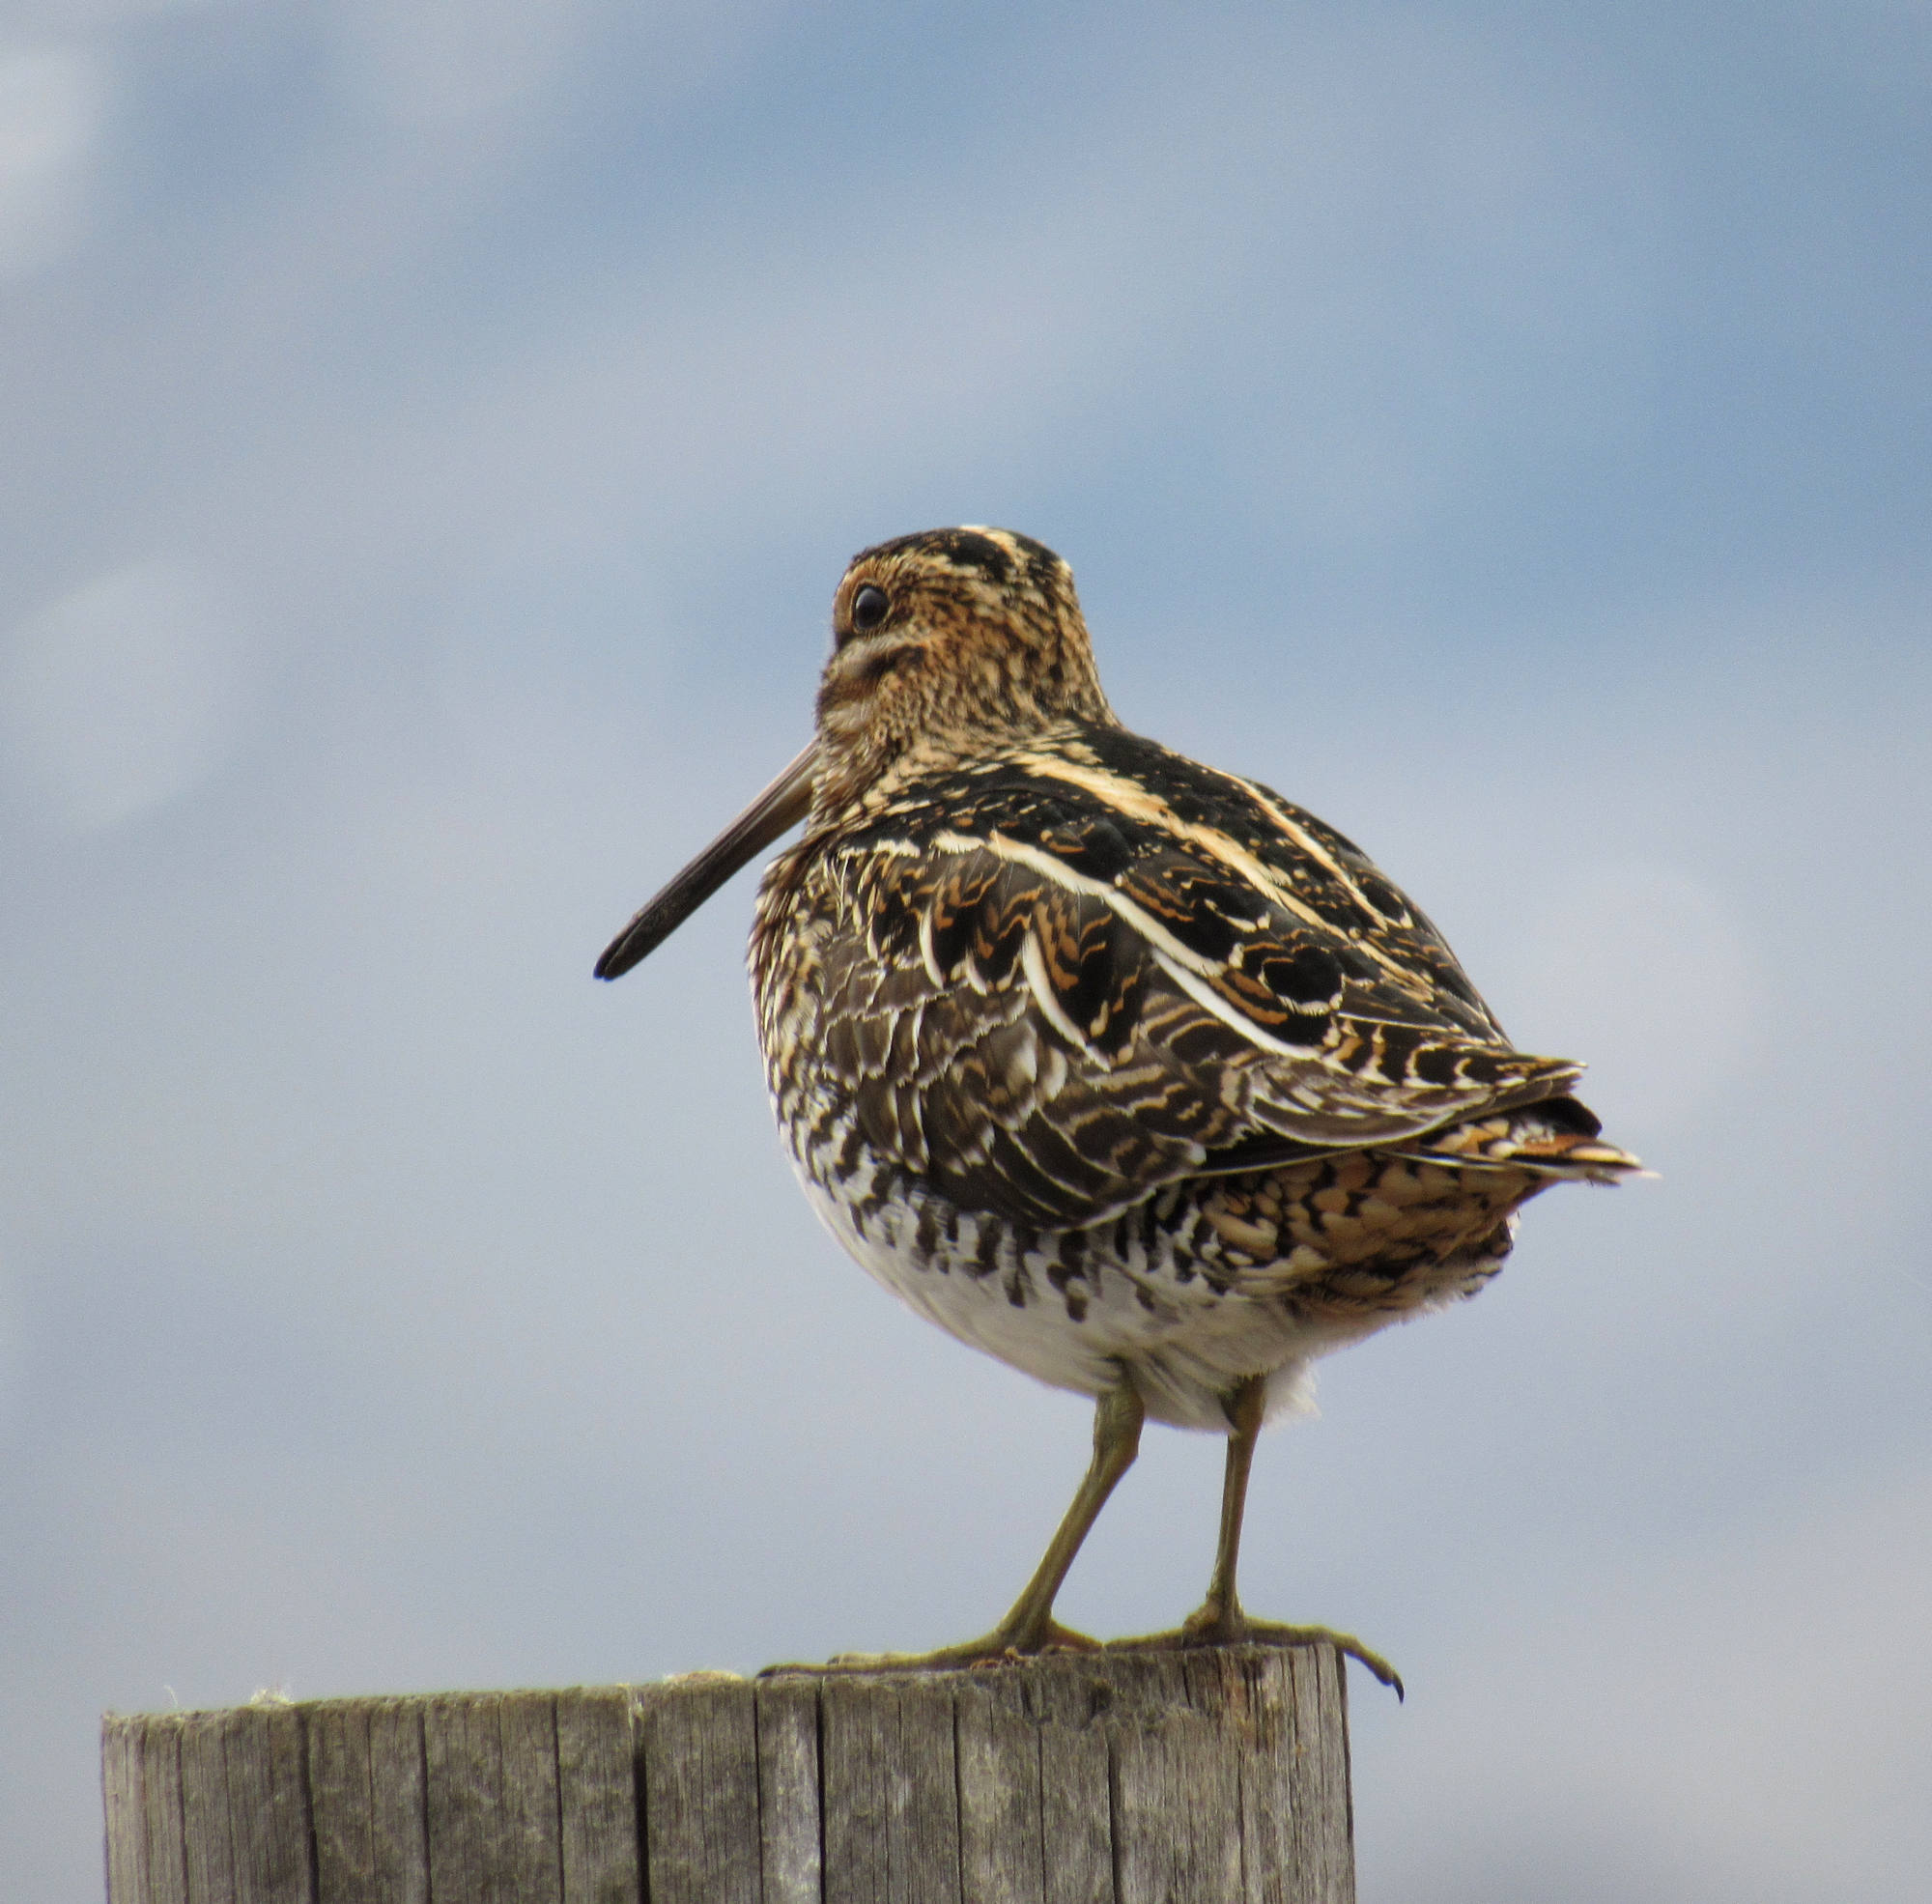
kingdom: Animalia
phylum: Chordata
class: Aves
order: Charadriiformes
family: Scolopacidae
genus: Gallinago
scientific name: Gallinago delicata
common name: Wilson's snipe
